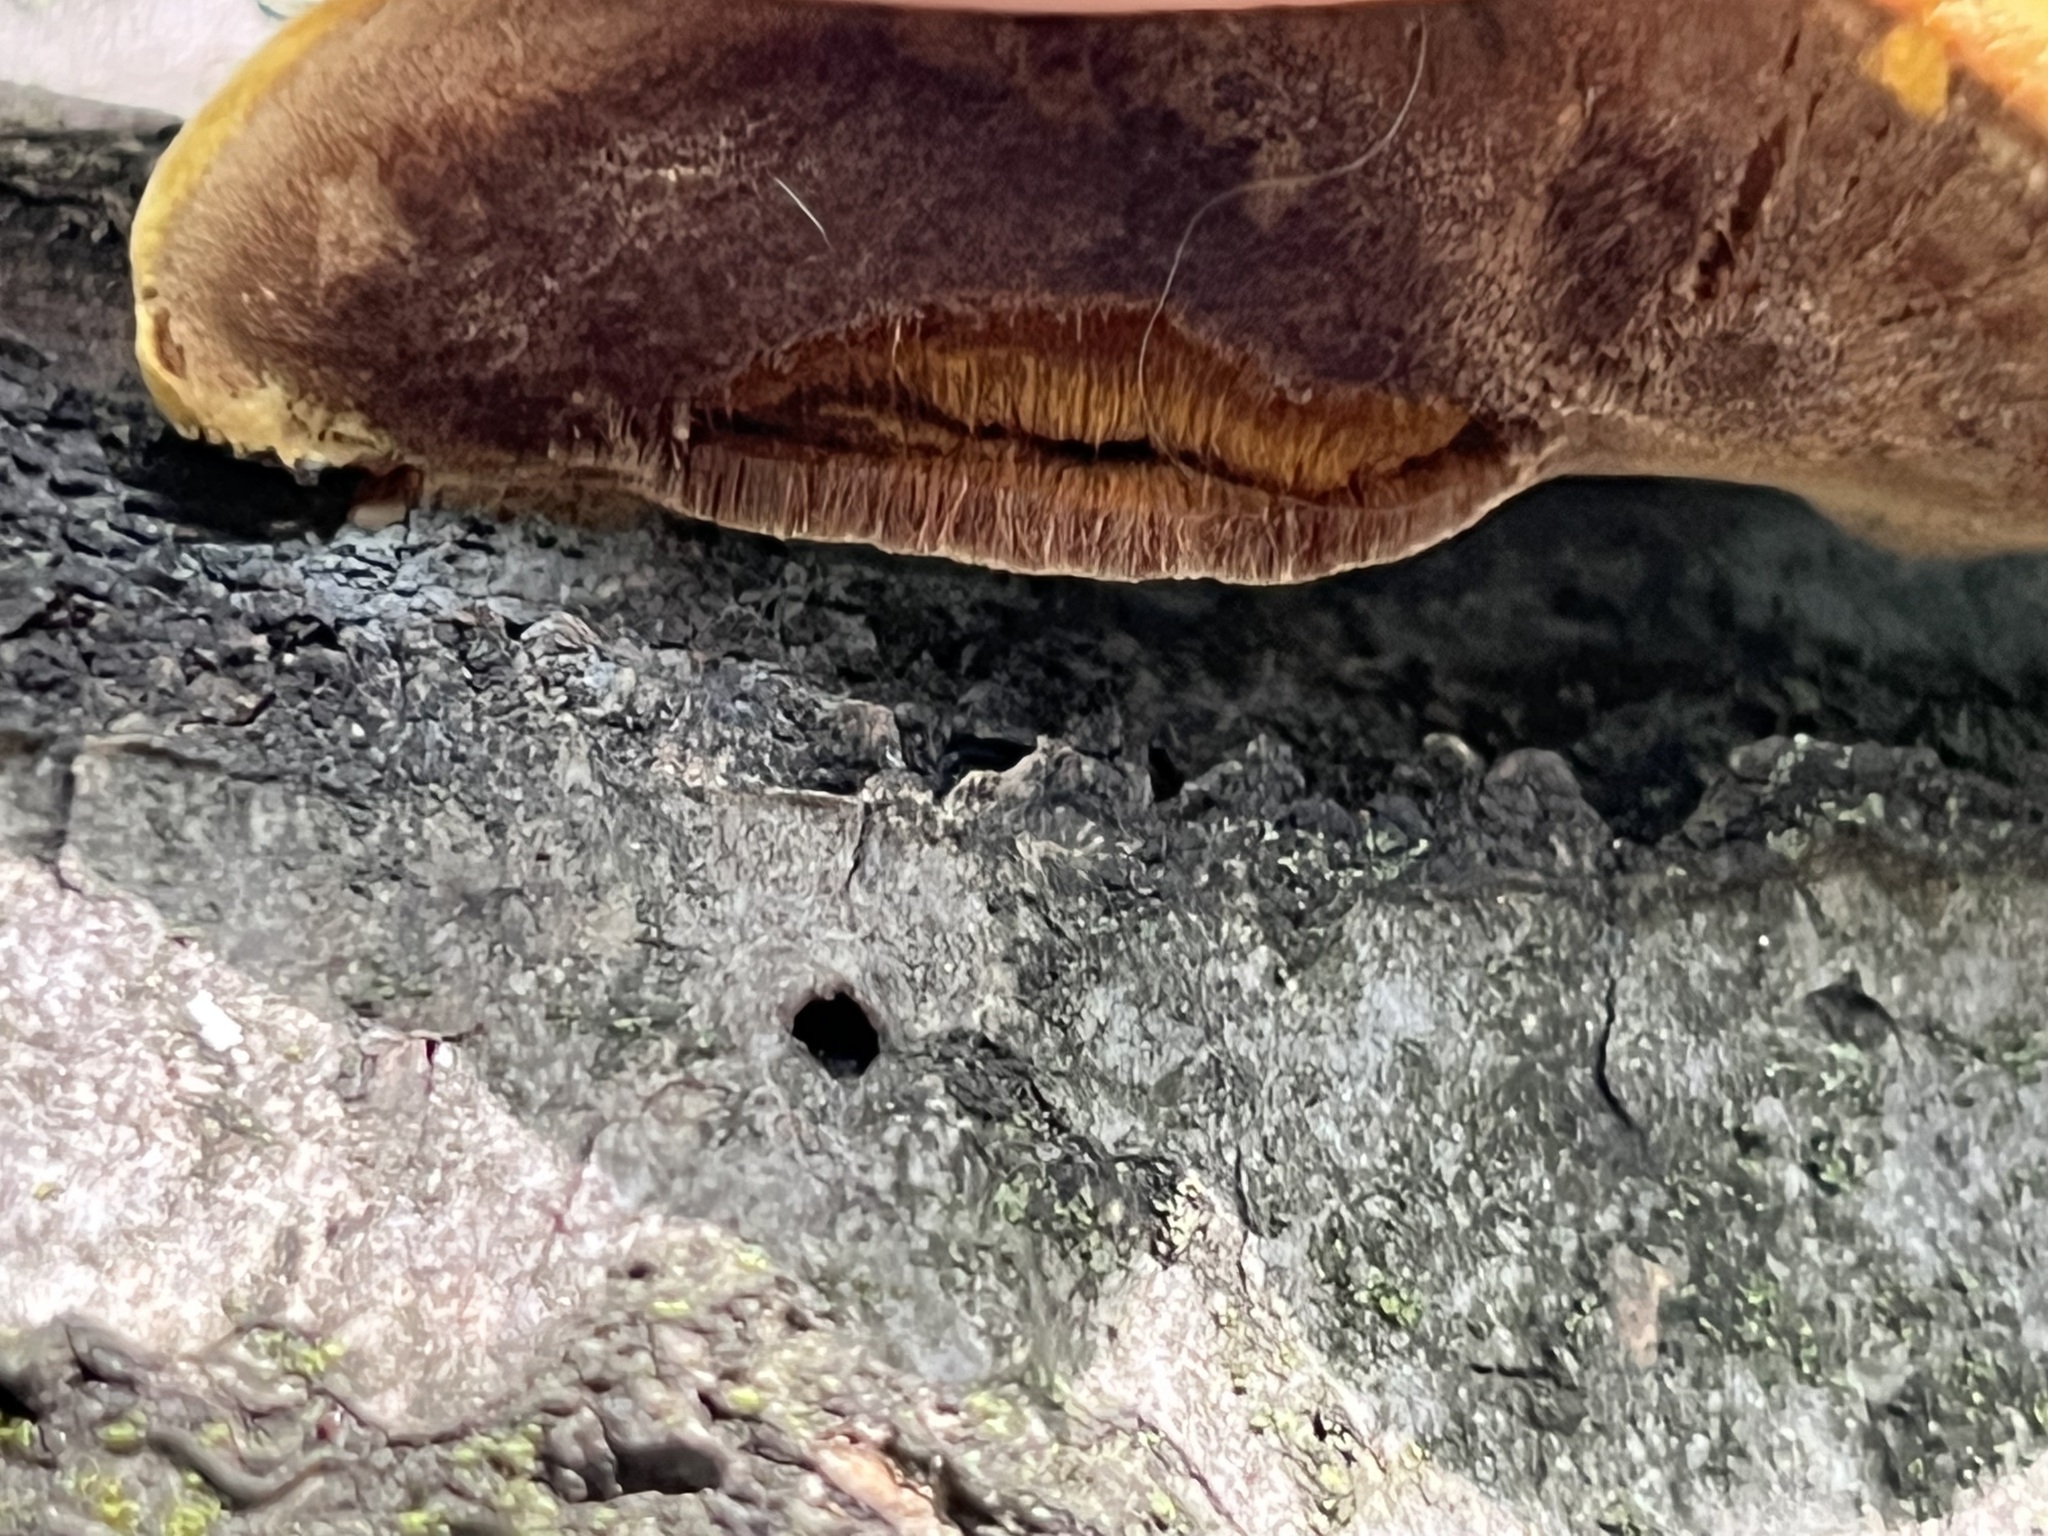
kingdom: Fungi
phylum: Basidiomycota
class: Agaricomycetes
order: Hymenochaetales
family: Hymenochaetaceae
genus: Phellinus
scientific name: Phellinus gilvus
